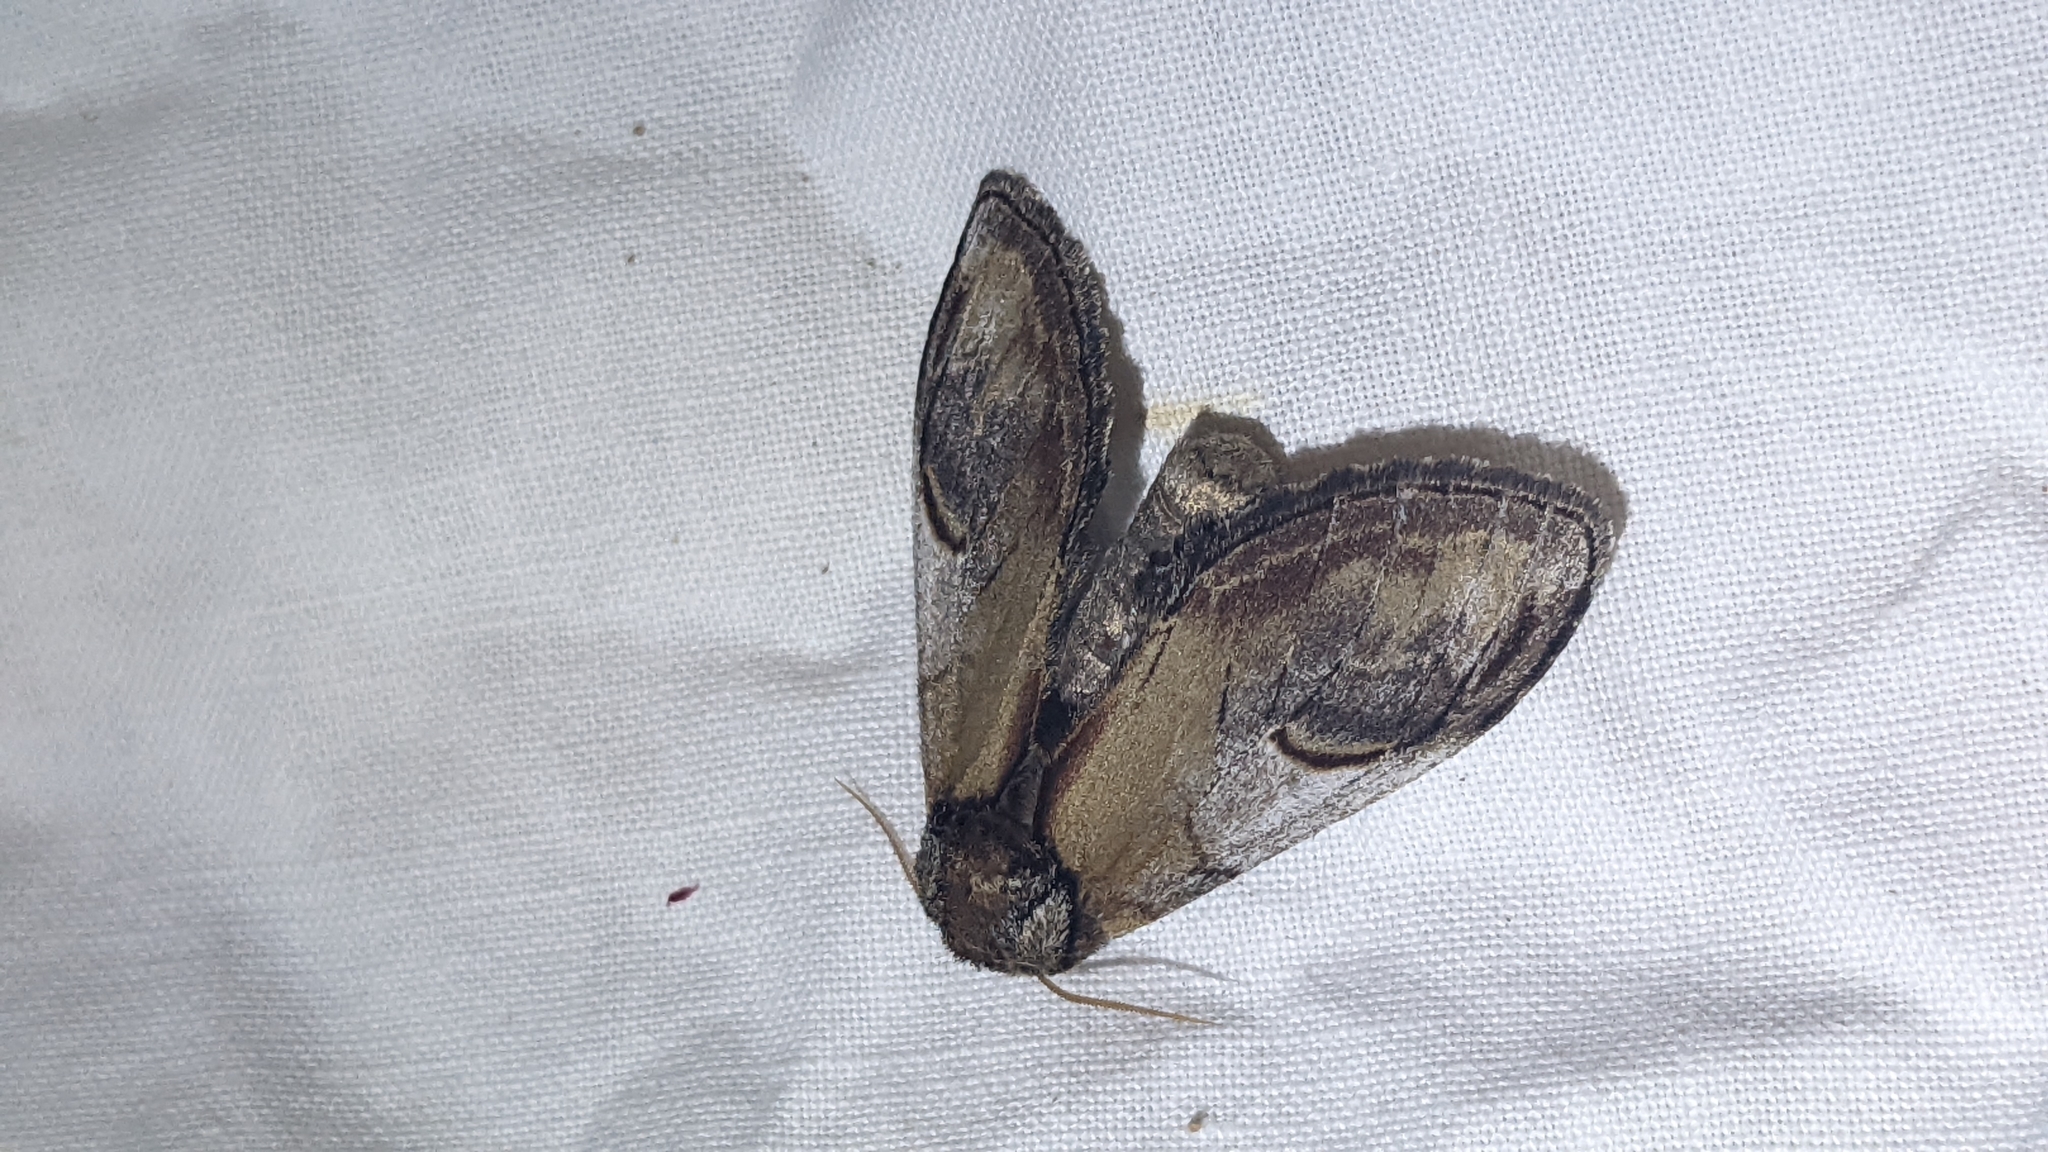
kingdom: Animalia
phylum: Arthropoda
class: Insecta
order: Lepidoptera
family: Notodontidae
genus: Notodonta
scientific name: Notodonta ziczac
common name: Pebble prominent
